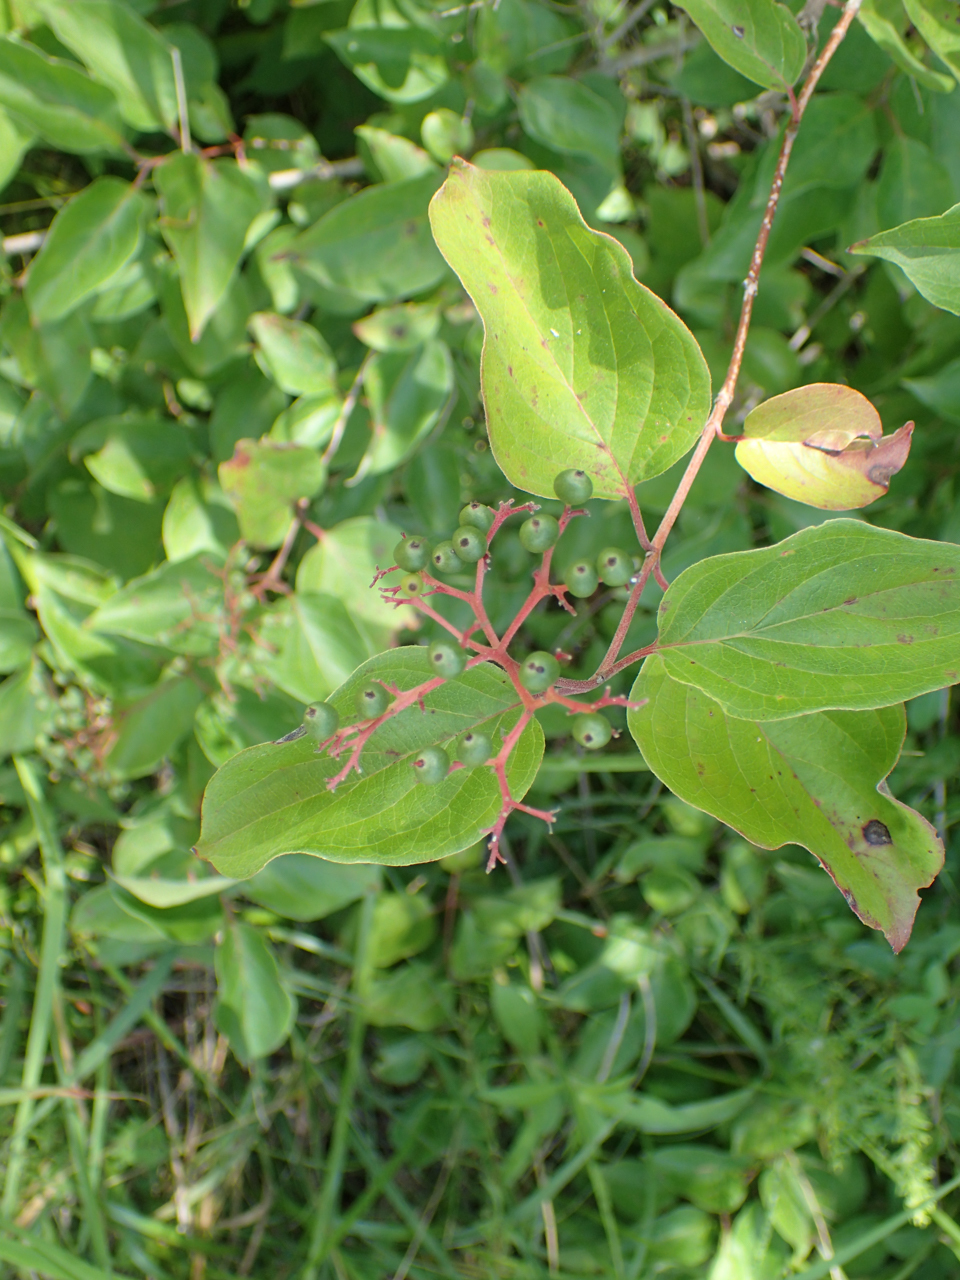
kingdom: Plantae
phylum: Tracheophyta
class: Magnoliopsida
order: Cornales
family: Cornaceae
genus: Cornus
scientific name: Cornus drummondii
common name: Rough-leaf dogwood
